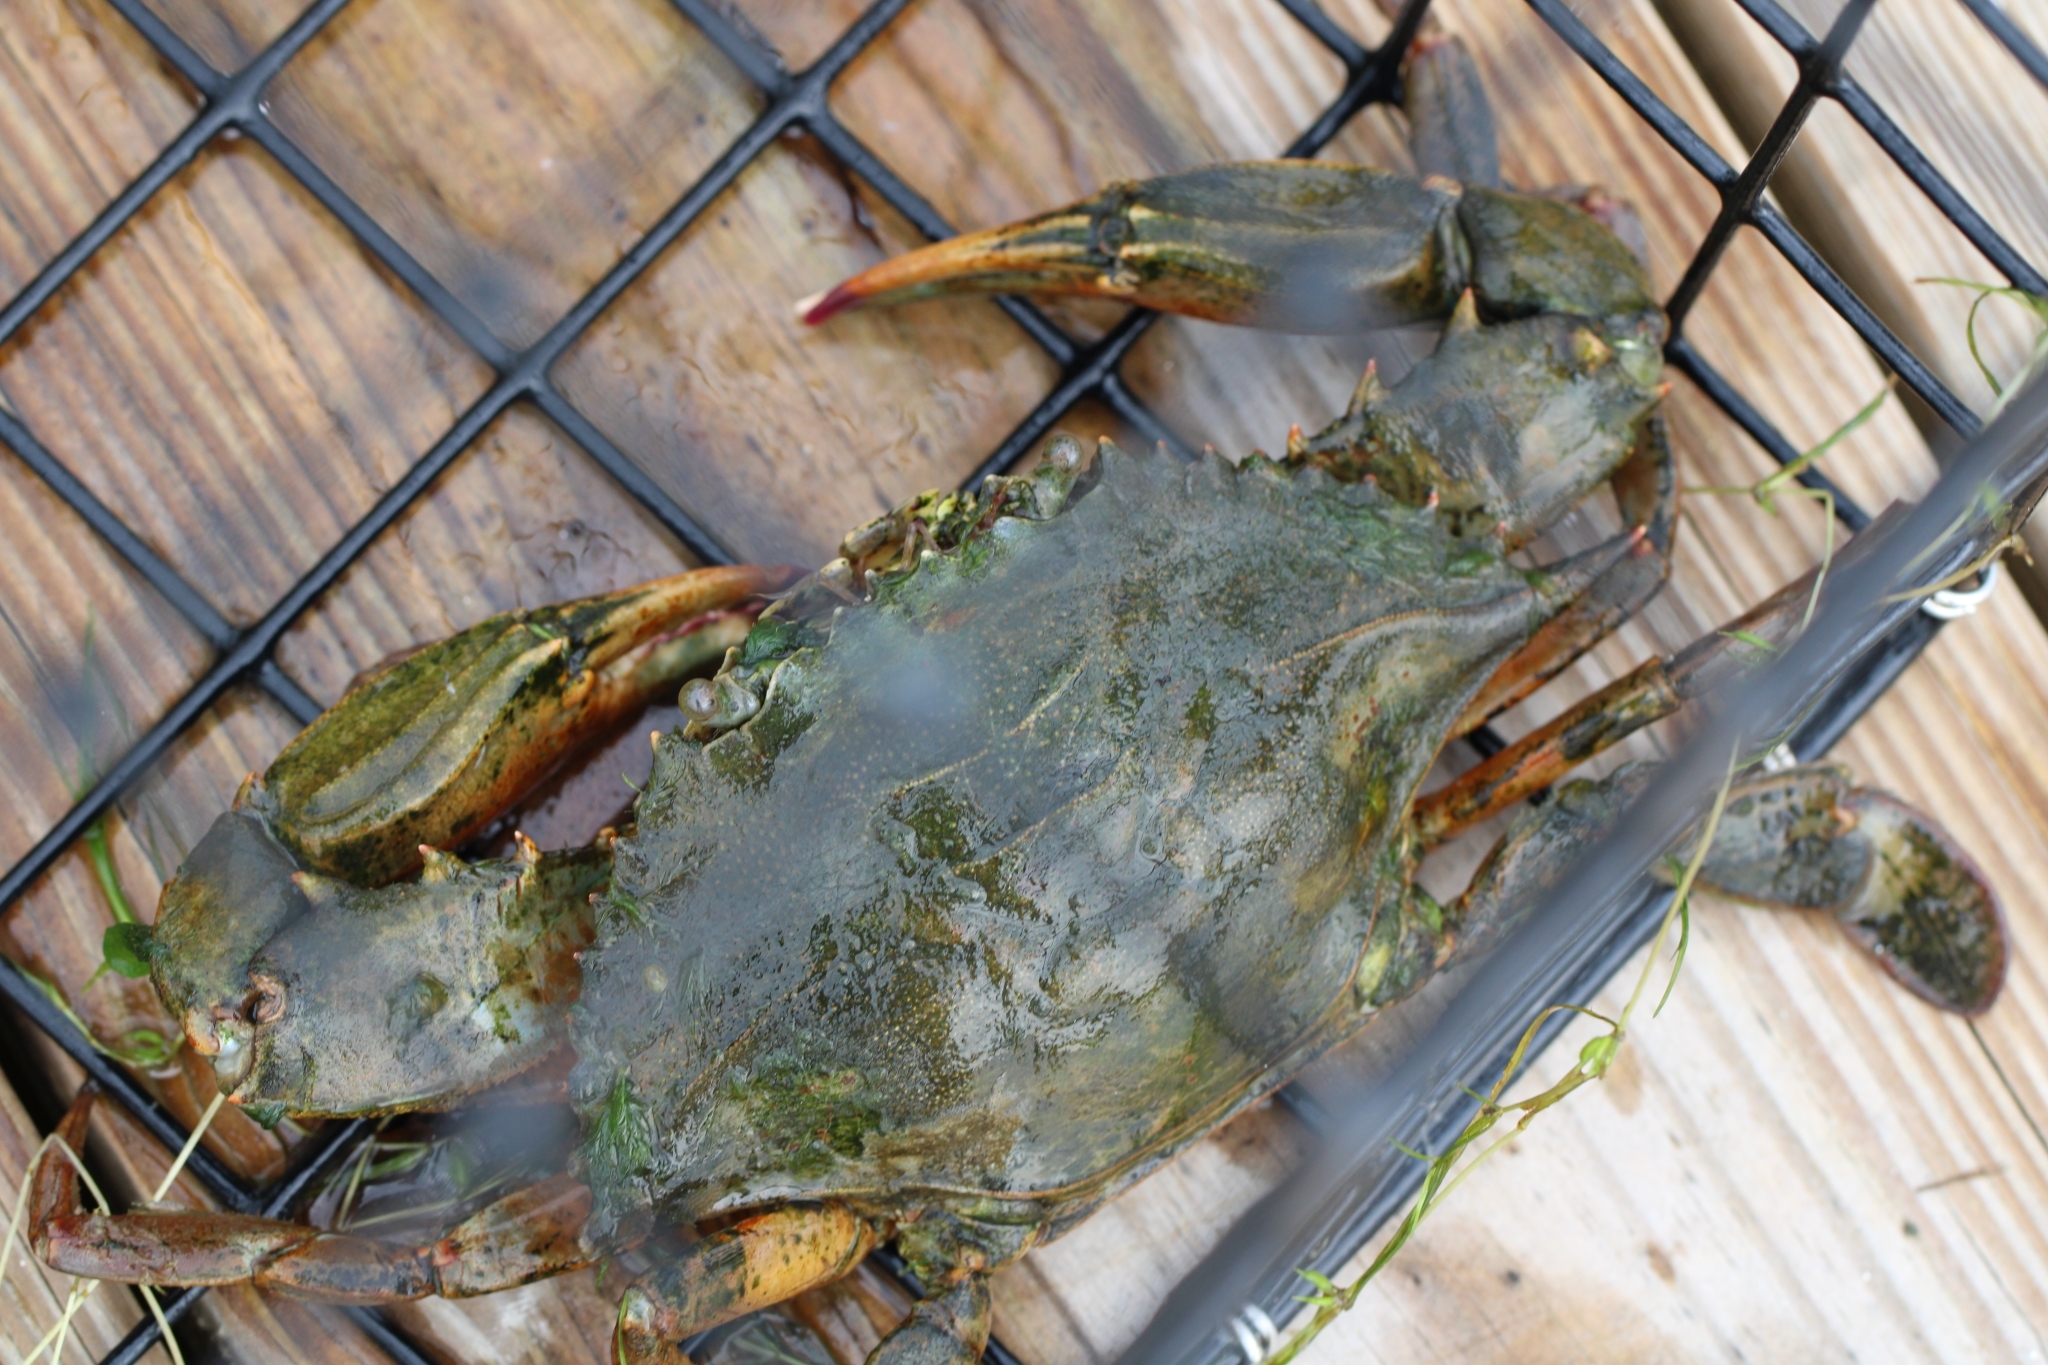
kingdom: Animalia
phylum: Arthropoda
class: Malacostraca
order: Decapoda
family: Portunidae
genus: Callinectes
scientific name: Callinectes sapidus
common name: Blue crab
